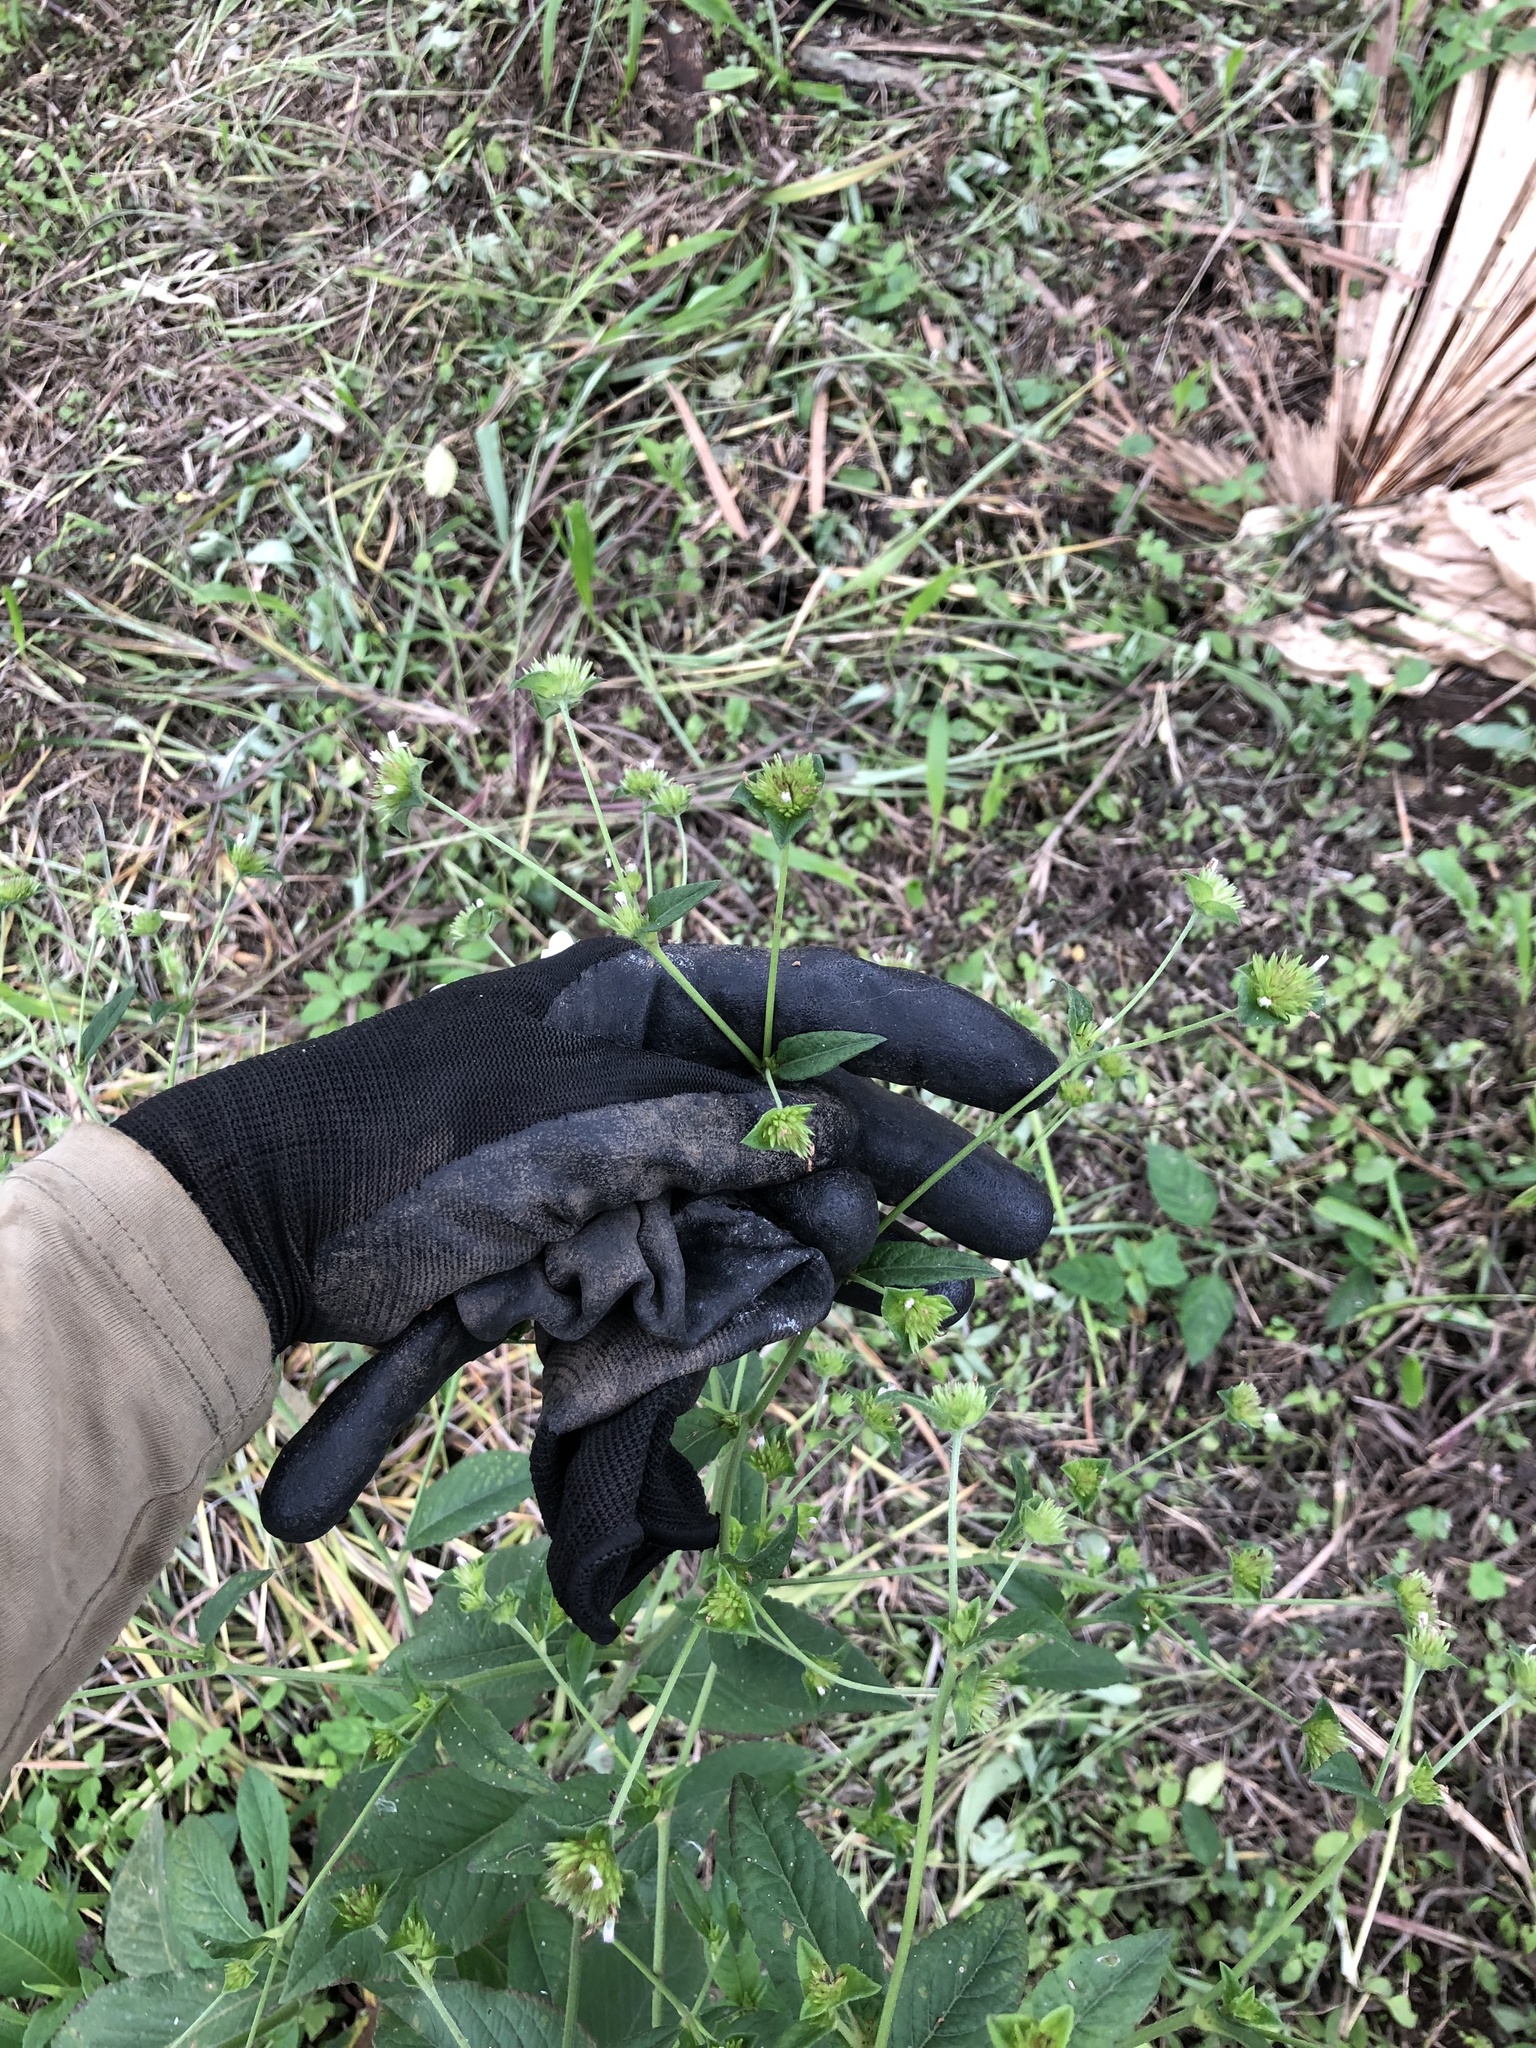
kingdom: Plantae
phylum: Tracheophyta
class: Magnoliopsida
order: Asterales
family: Asteraceae
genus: Elephantopus
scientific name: Elephantopus mollis
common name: Soft elephantsfoot
